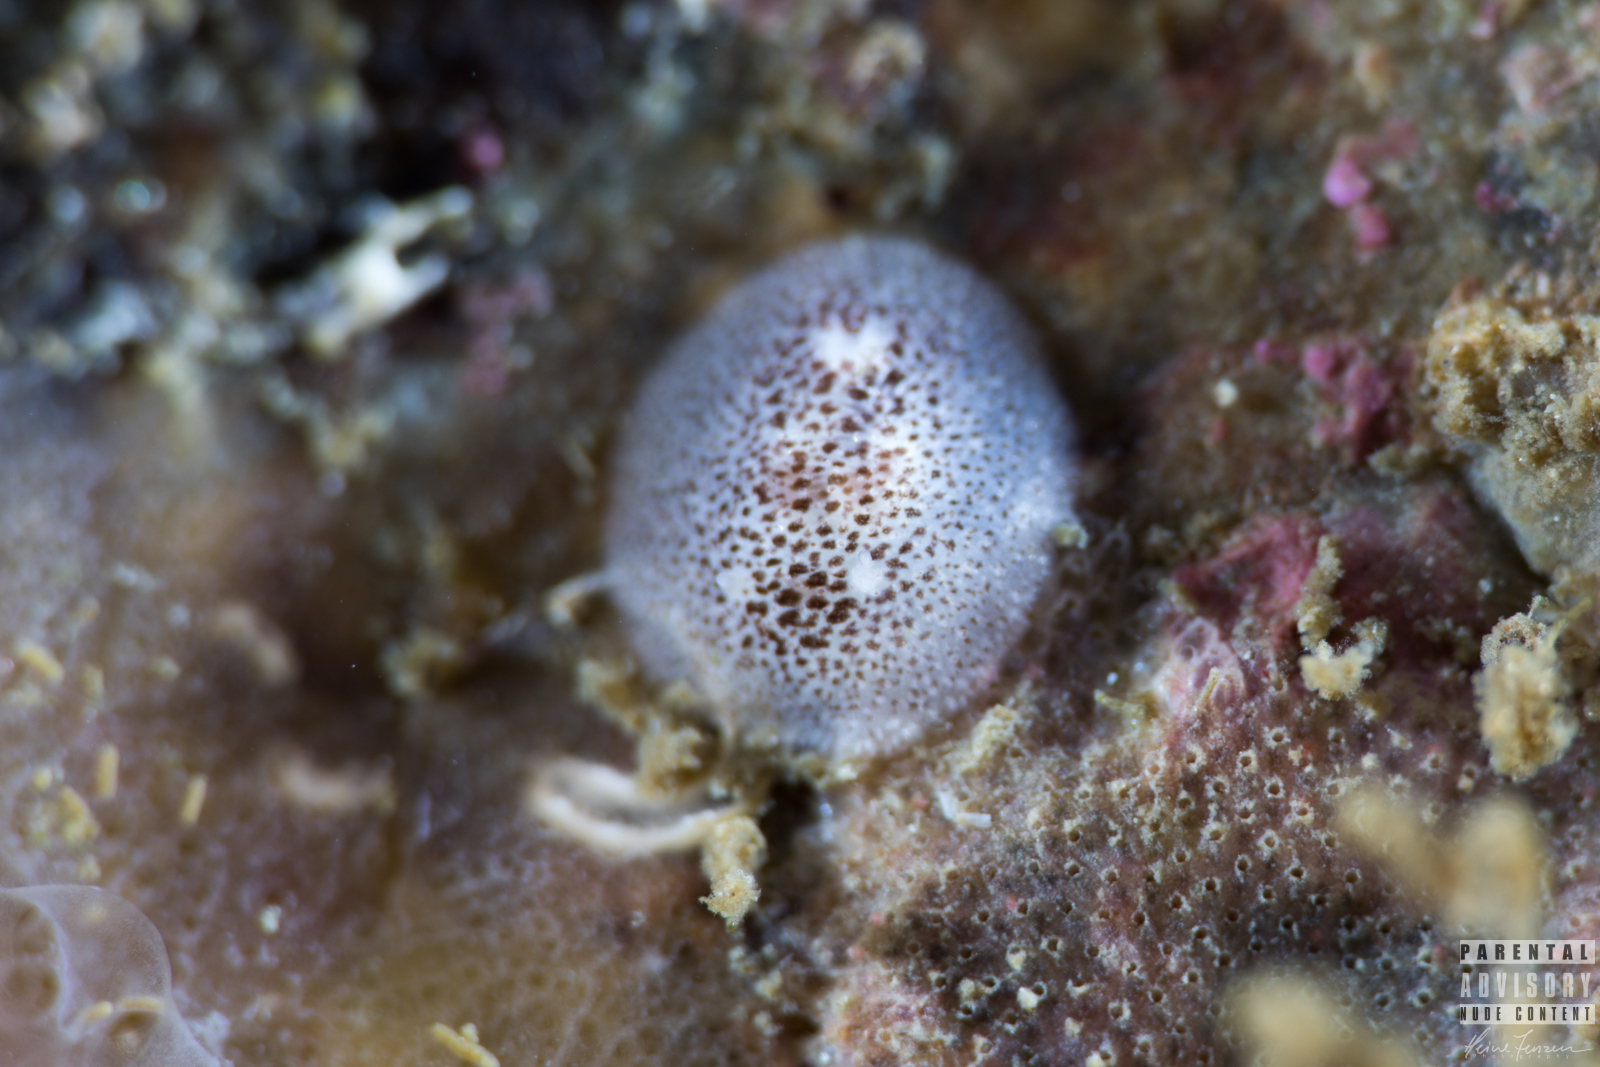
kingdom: Animalia
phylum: Mollusca
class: Gastropoda
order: Nudibranchia
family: Onchidorididae
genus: Atalodoris
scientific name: Atalodoris pusilla
